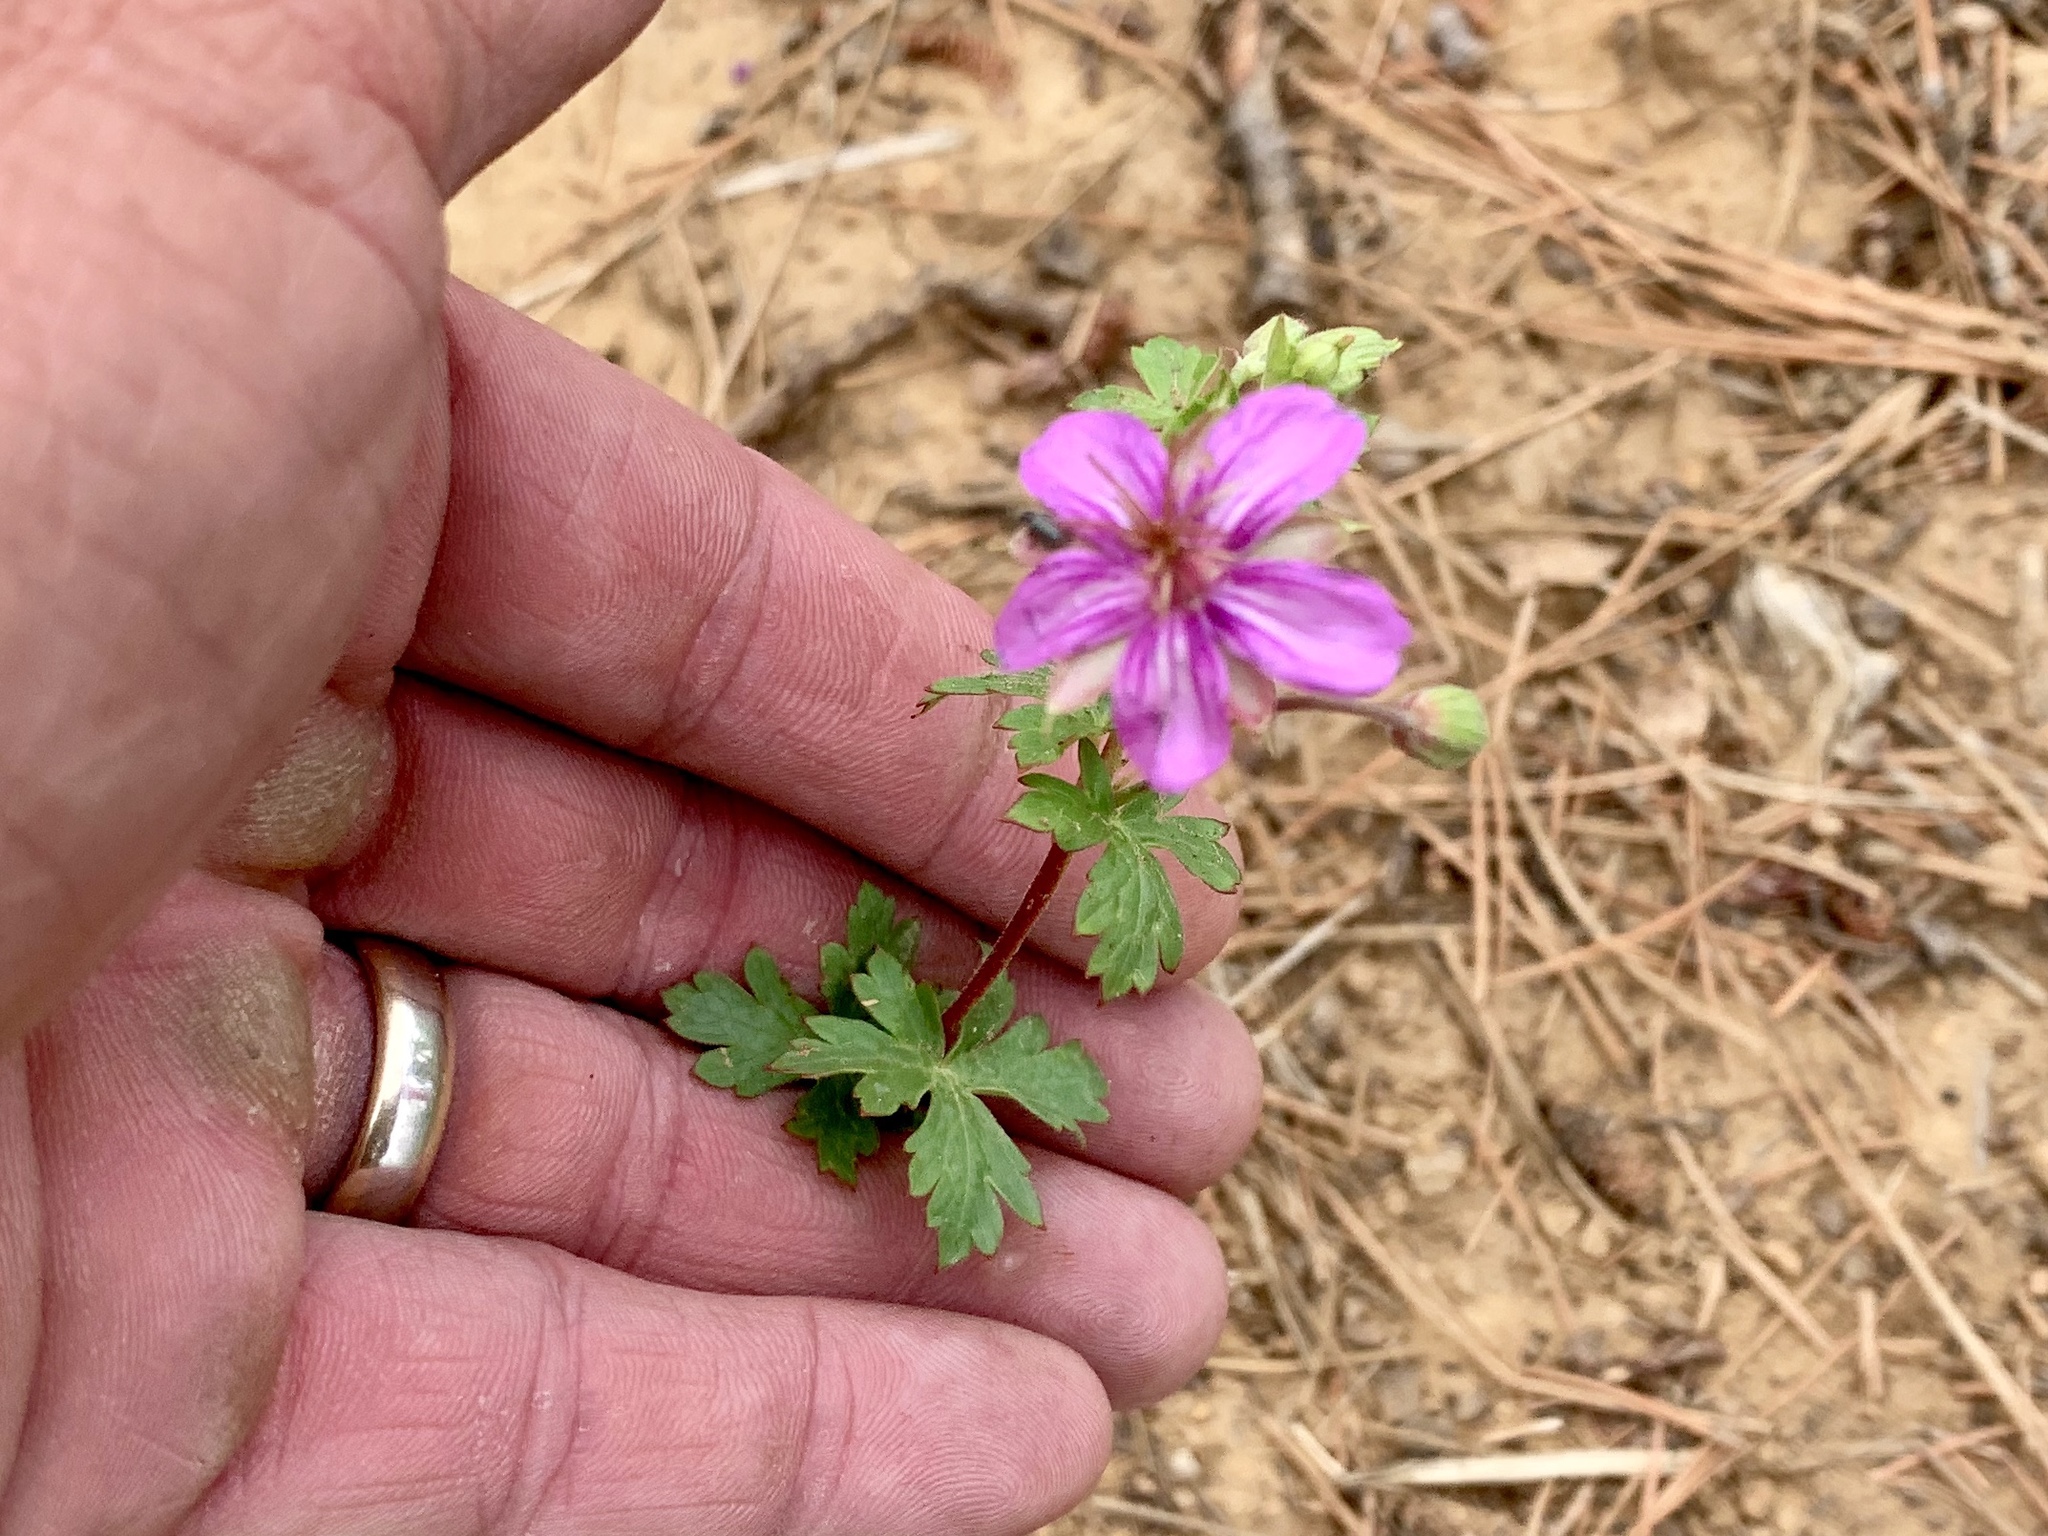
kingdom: Plantae
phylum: Tracheophyta
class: Magnoliopsida
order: Geraniales
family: Geraniaceae
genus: Geranium
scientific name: Geranium caespitosum
